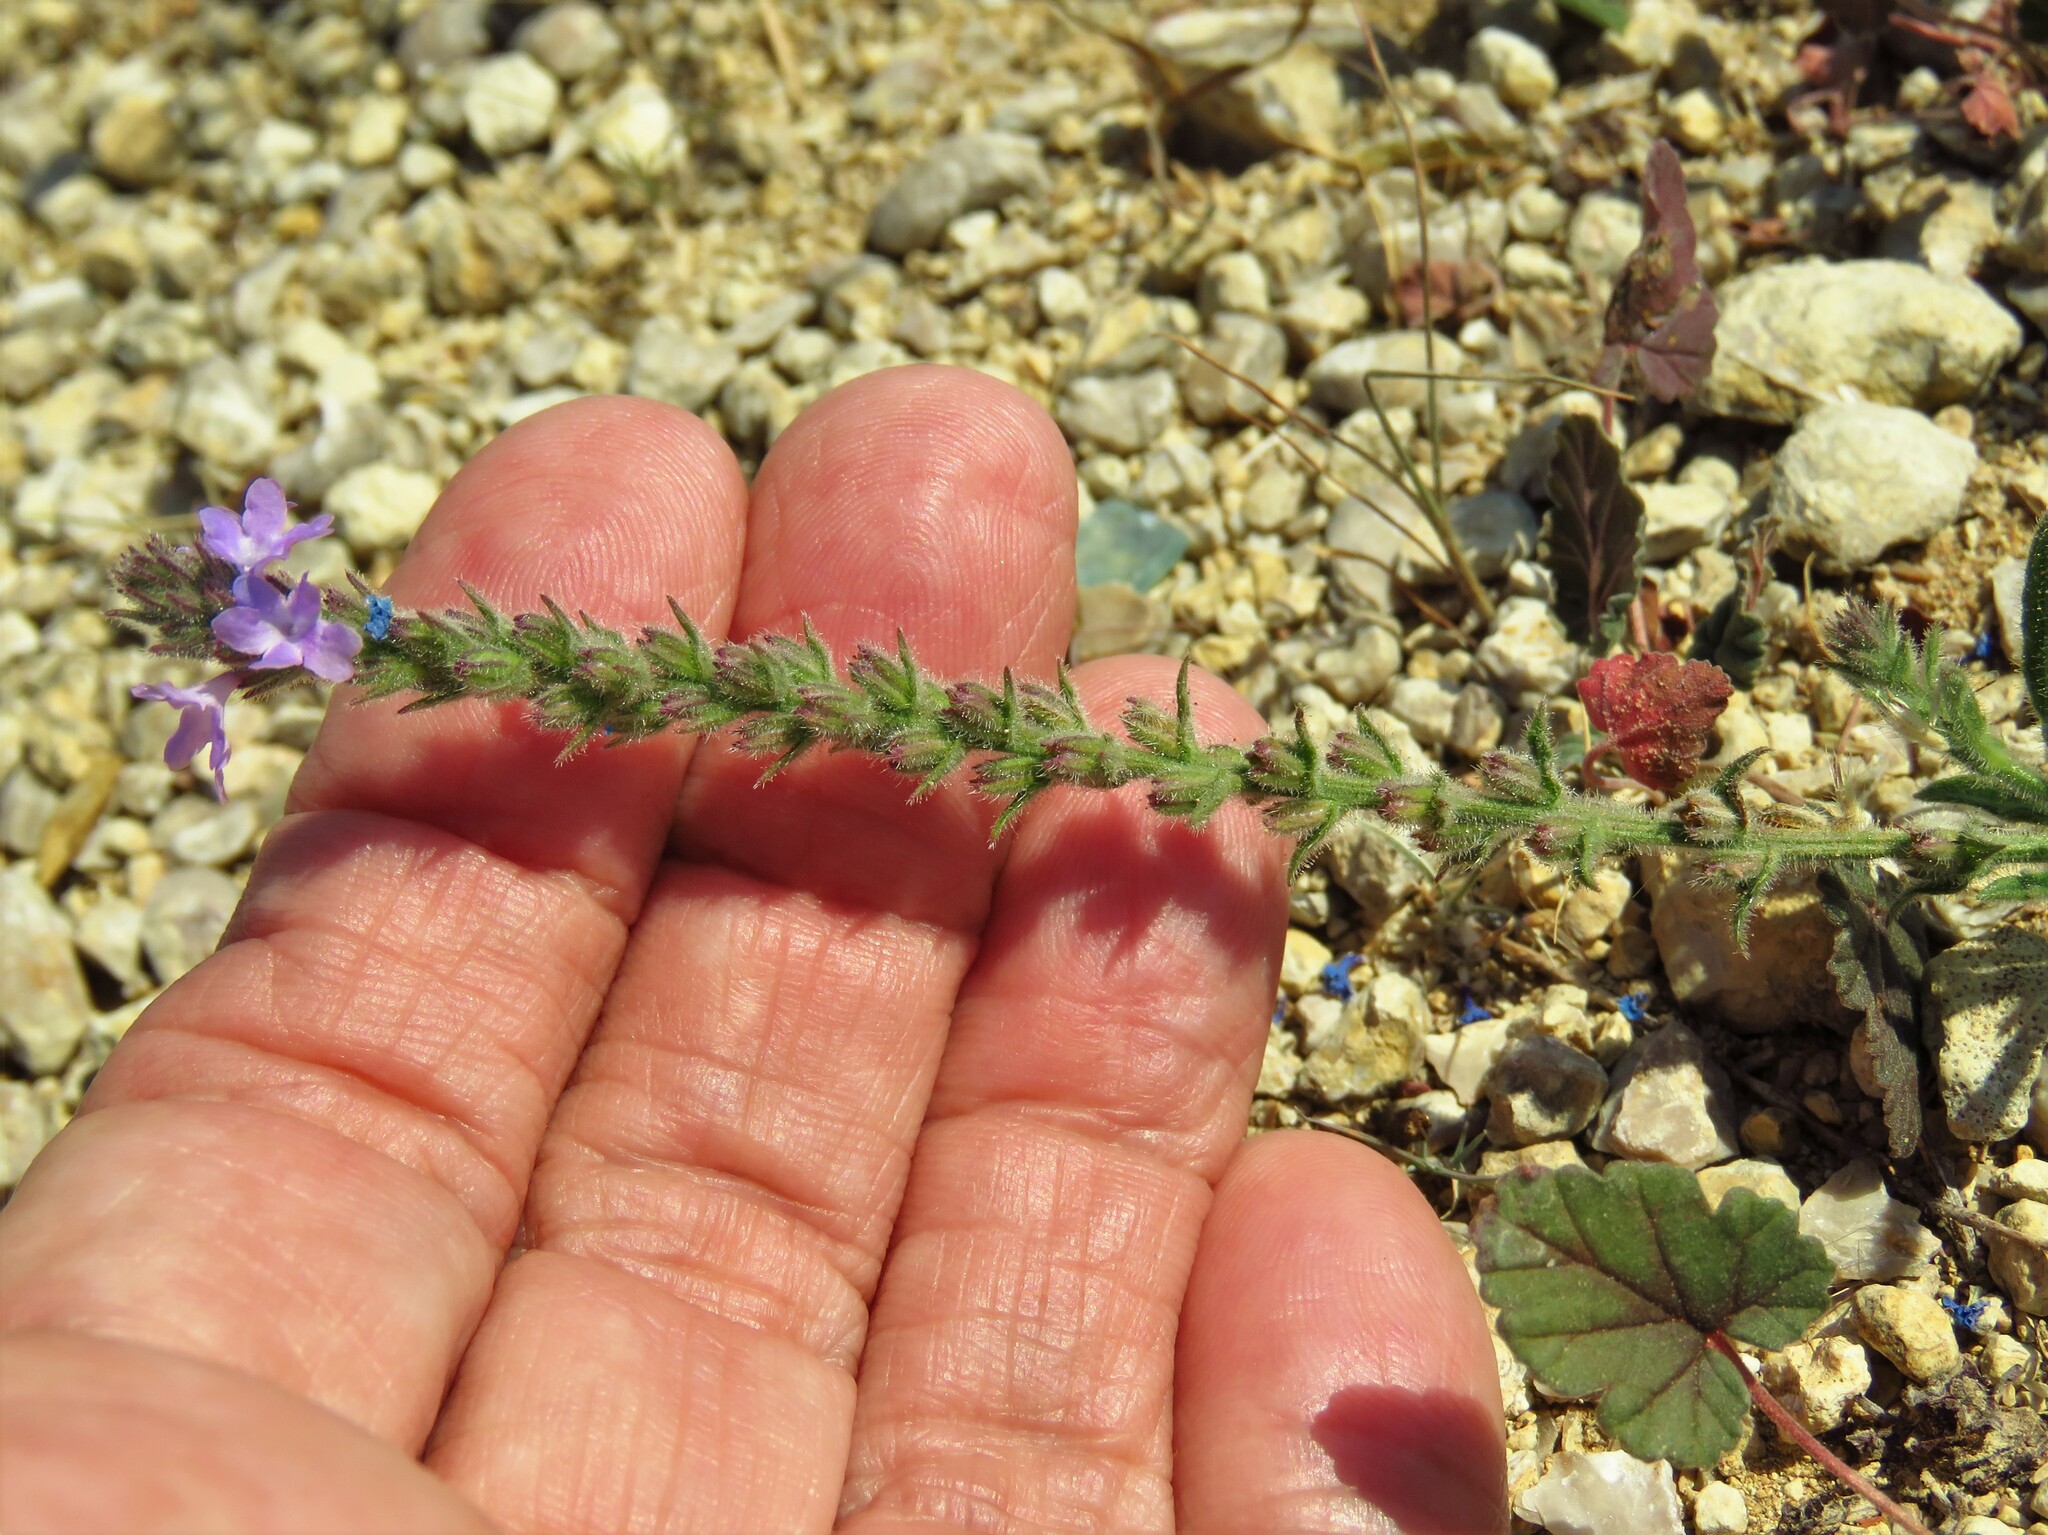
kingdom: Plantae
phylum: Tracheophyta
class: Magnoliopsida
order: Lamiales
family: Verbenaceae
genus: Verbena
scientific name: Verbena canescens
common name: Gray vervain
